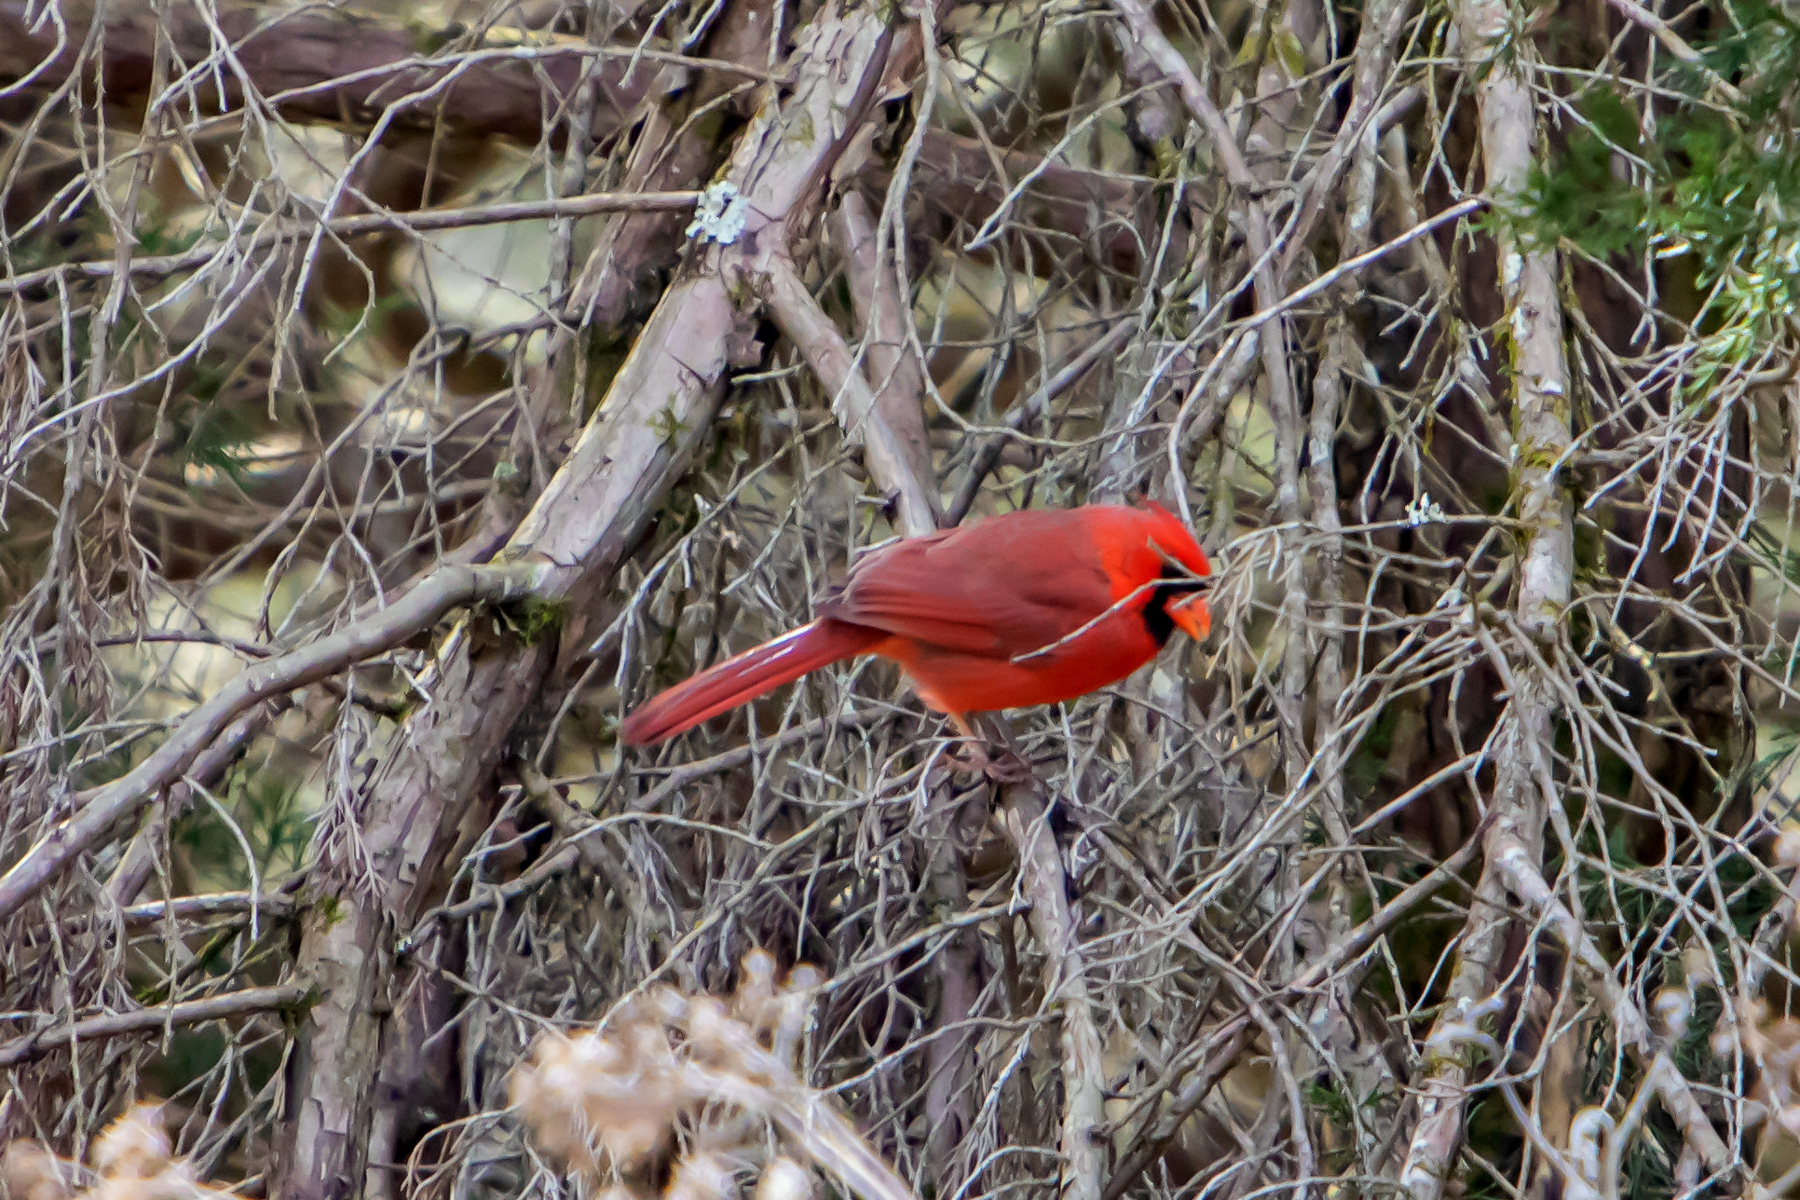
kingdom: Animalia
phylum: Chordata
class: Aves
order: Passeriformes
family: Cardinalidae
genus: Cardinalis
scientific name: Cardinalis cardinalis
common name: Northern cardinal
